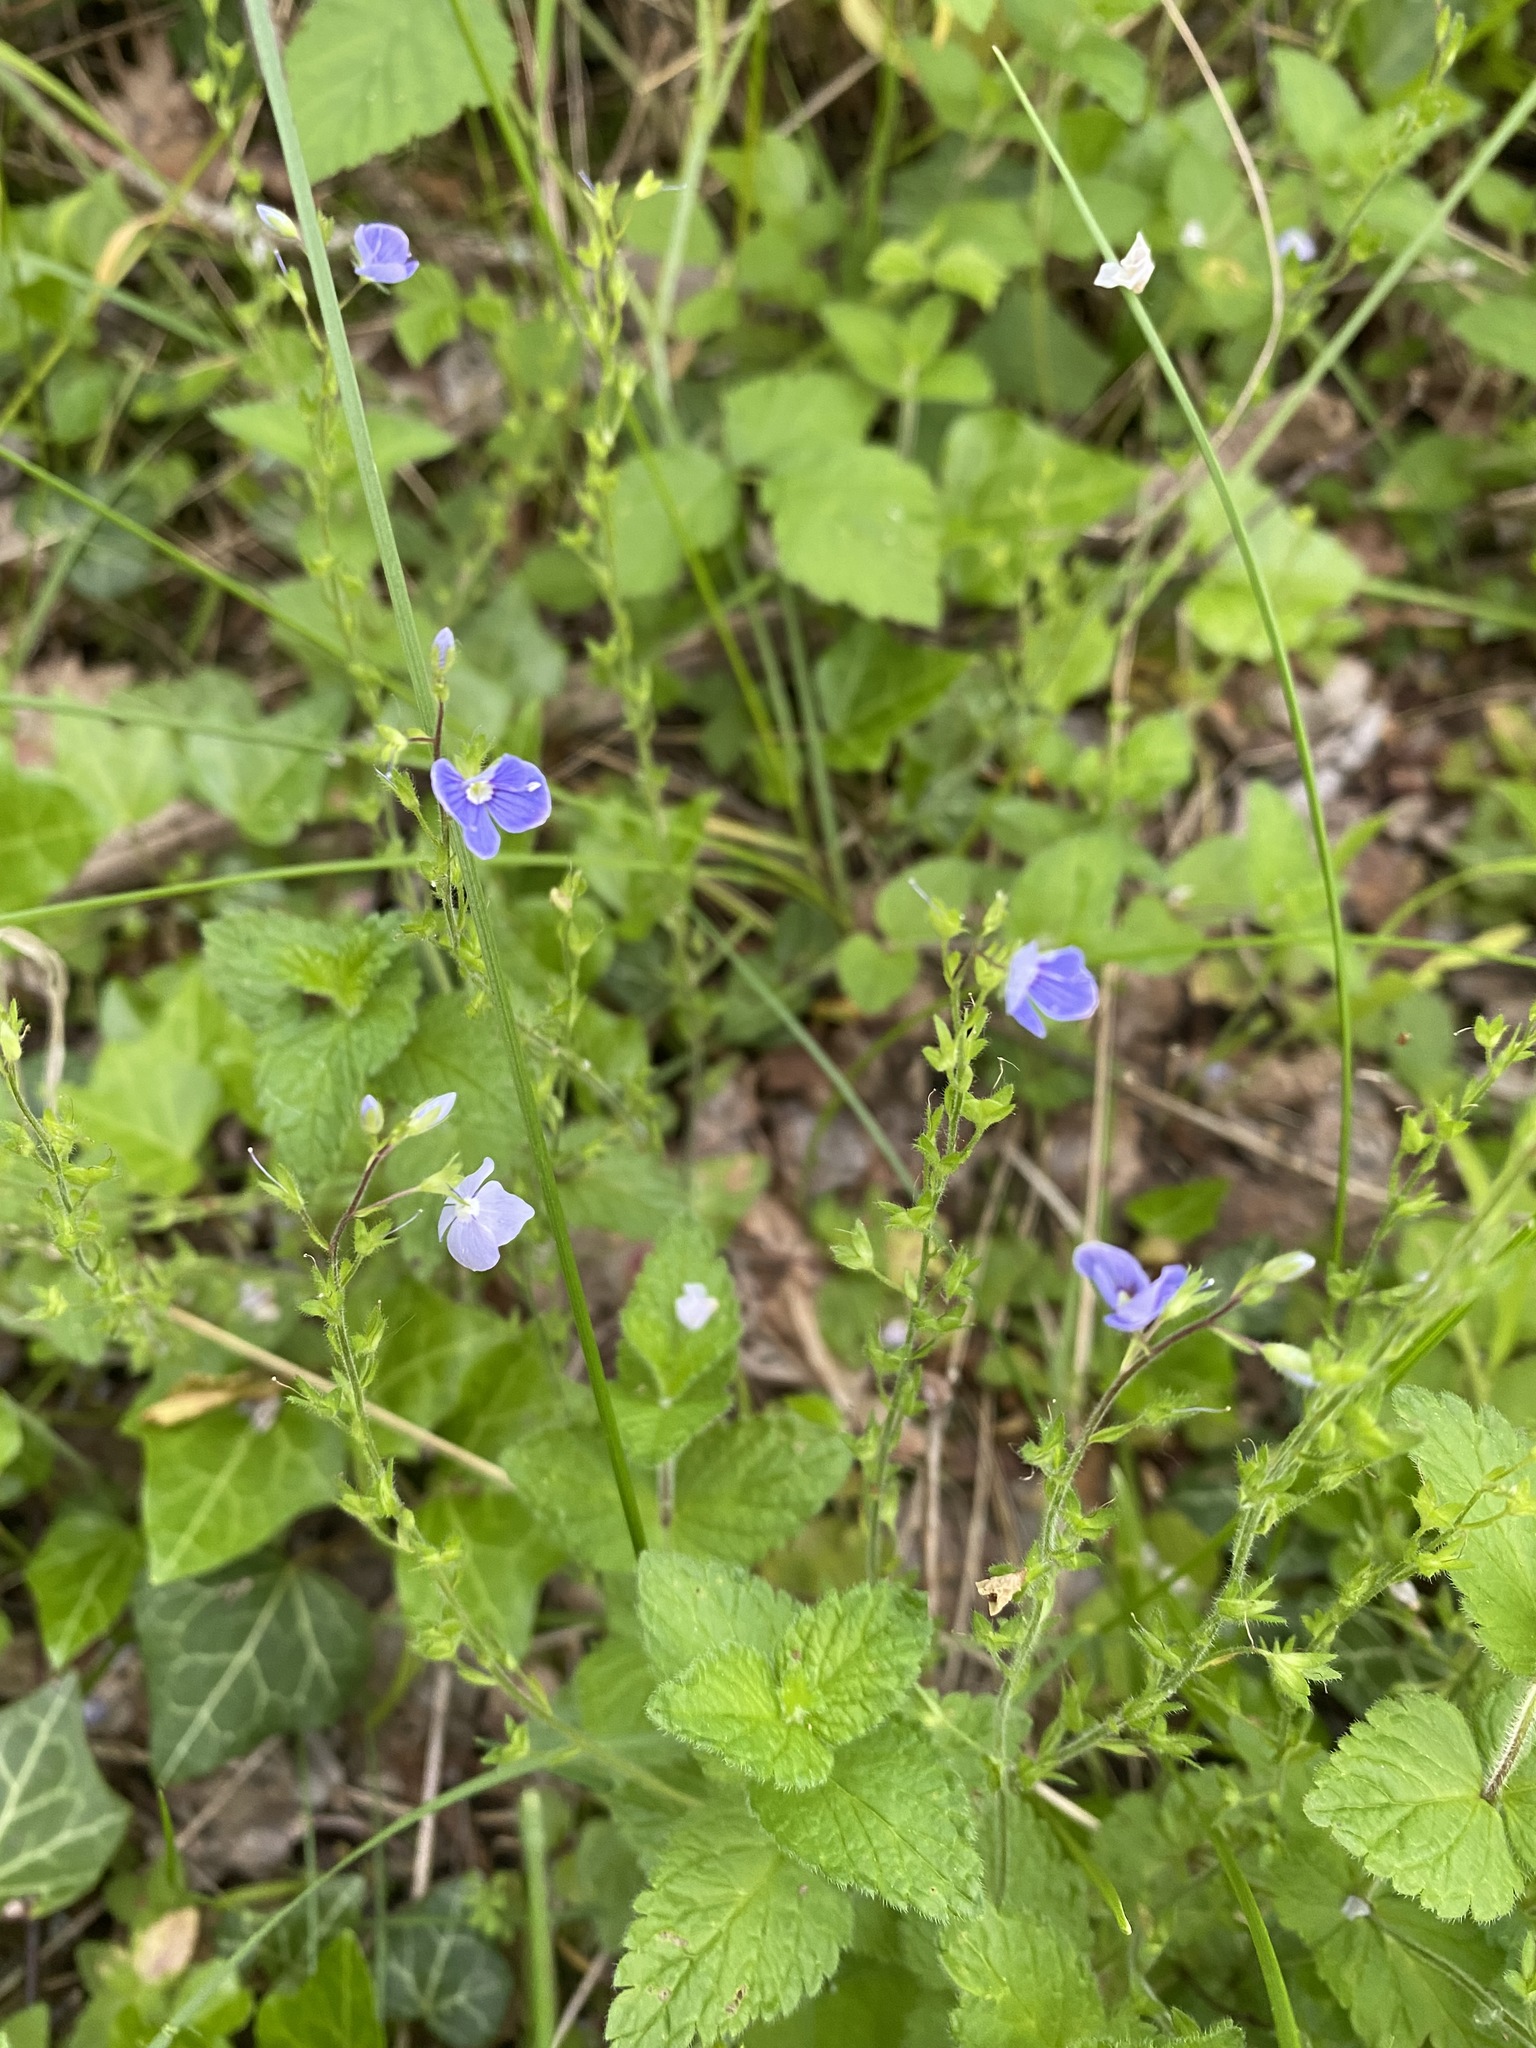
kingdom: Plantae
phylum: Tracheophyta
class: Magnoliopsida
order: Lamiales
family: Plantaginaceae
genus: Veronica
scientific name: Veronica chamaedrys
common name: Germander speedwell
